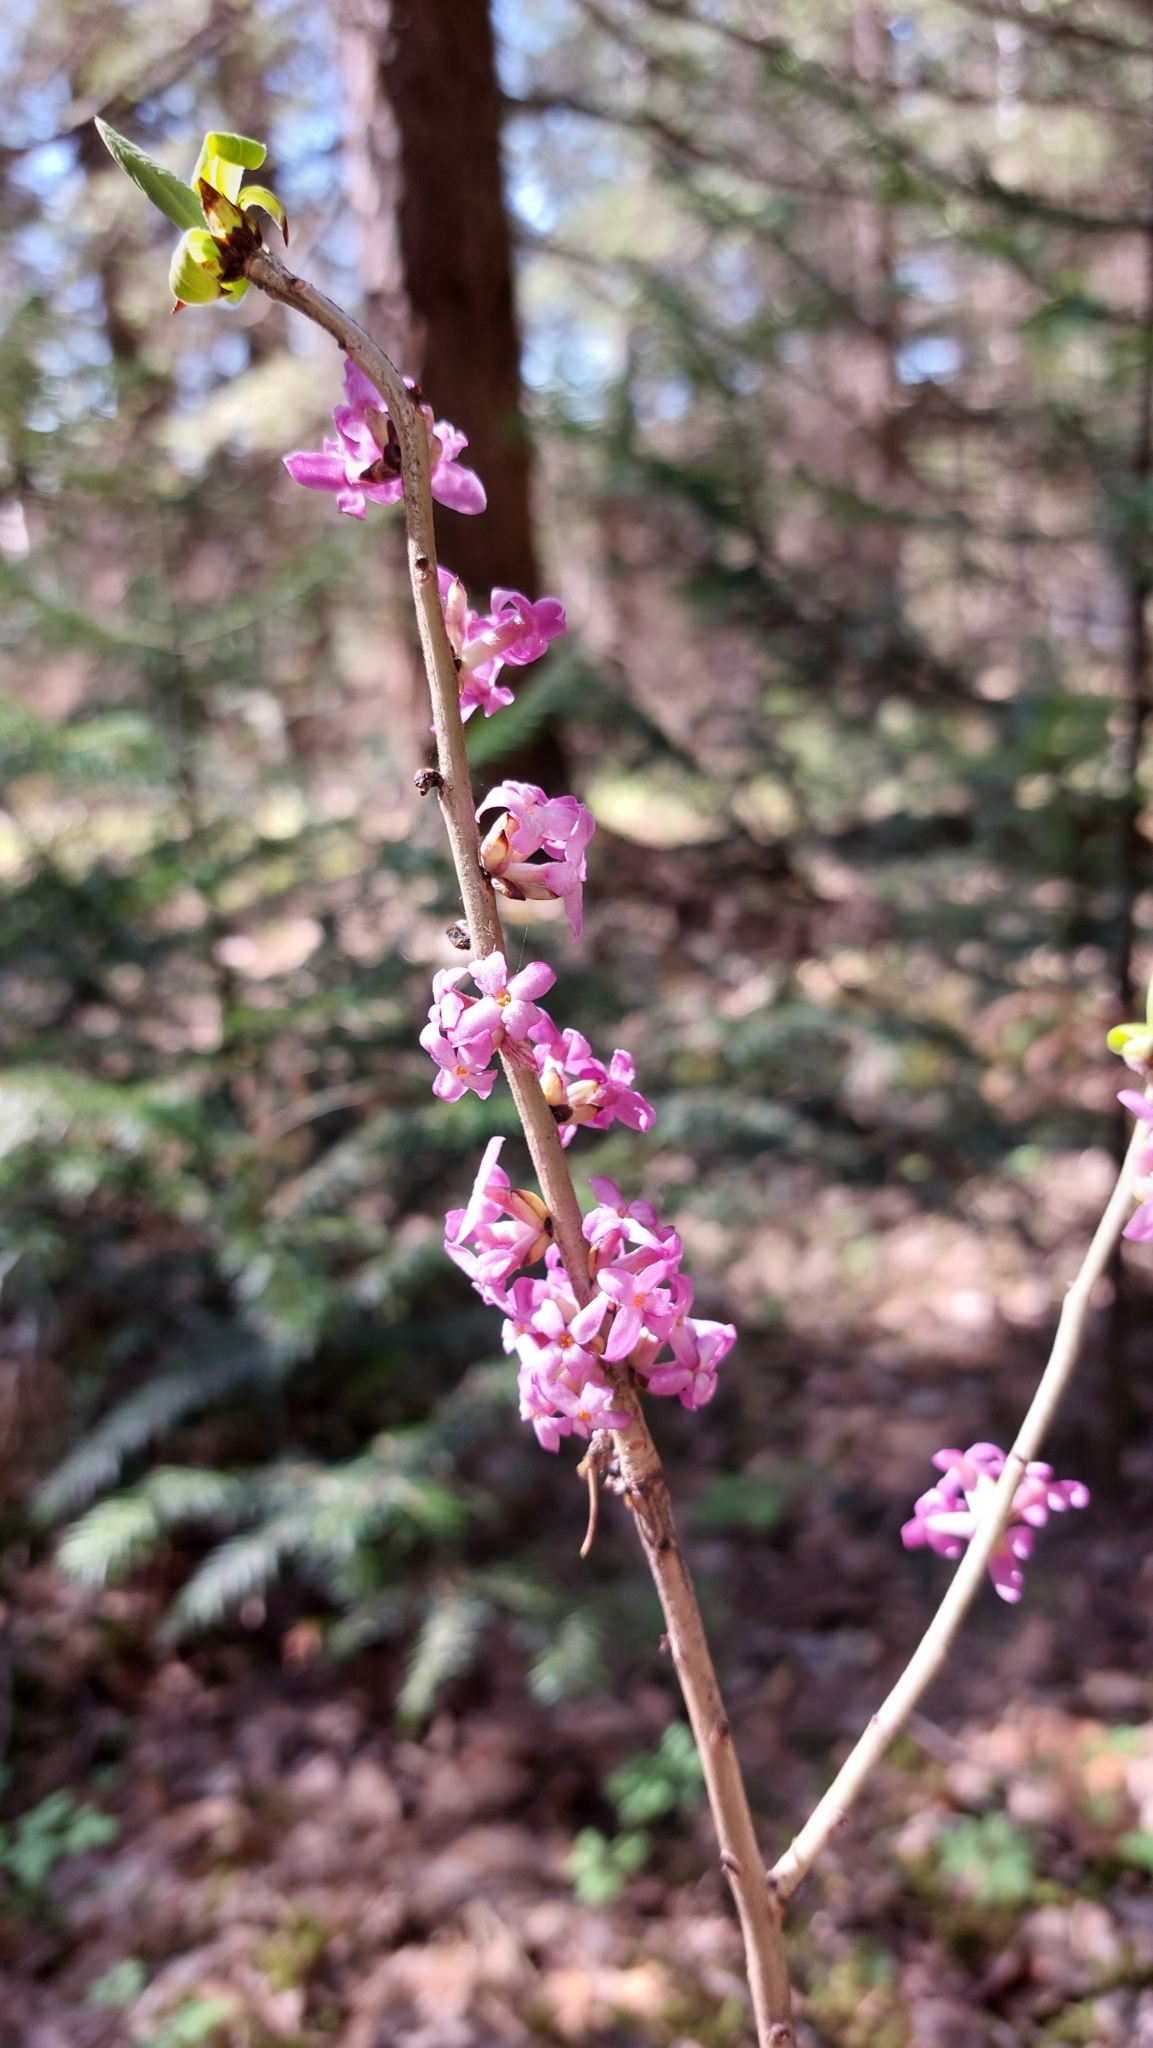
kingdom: Plantae
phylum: Tracheophyta
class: Magnoliopsida
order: Malvales
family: Thymelaeaceae
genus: Daphne
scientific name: Daphne mezereum
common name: Mezereon
